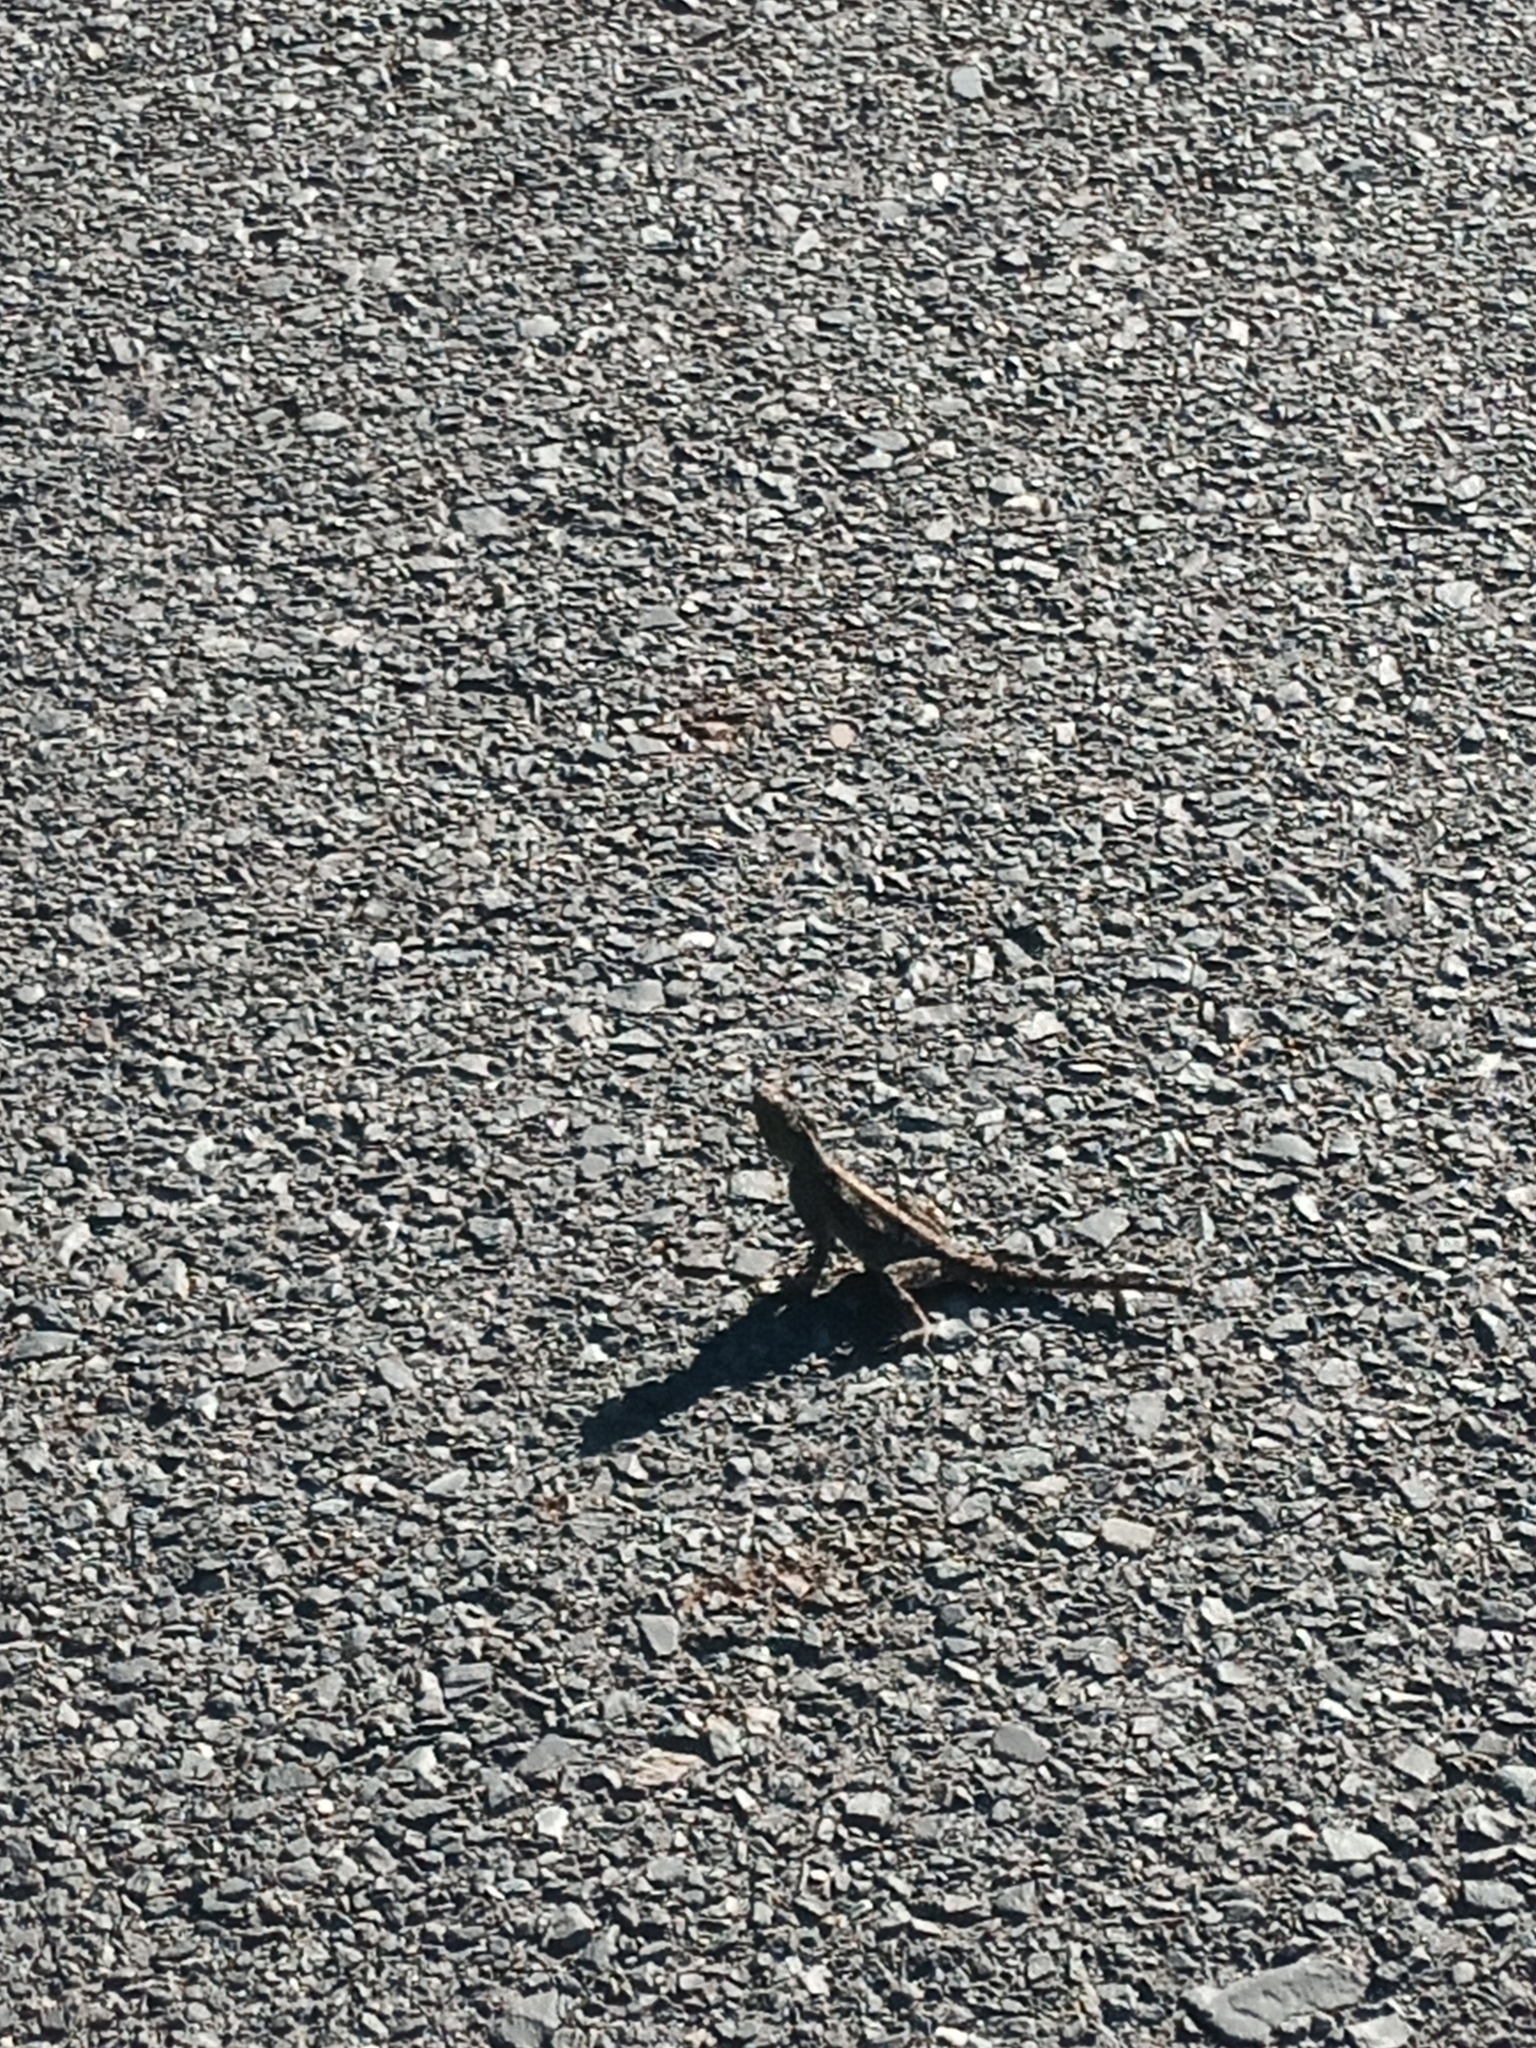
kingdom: Animalia
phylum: Chordata
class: Squamata
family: Agamidae
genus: Agama
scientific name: Agama atra
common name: Southern african rock agama
